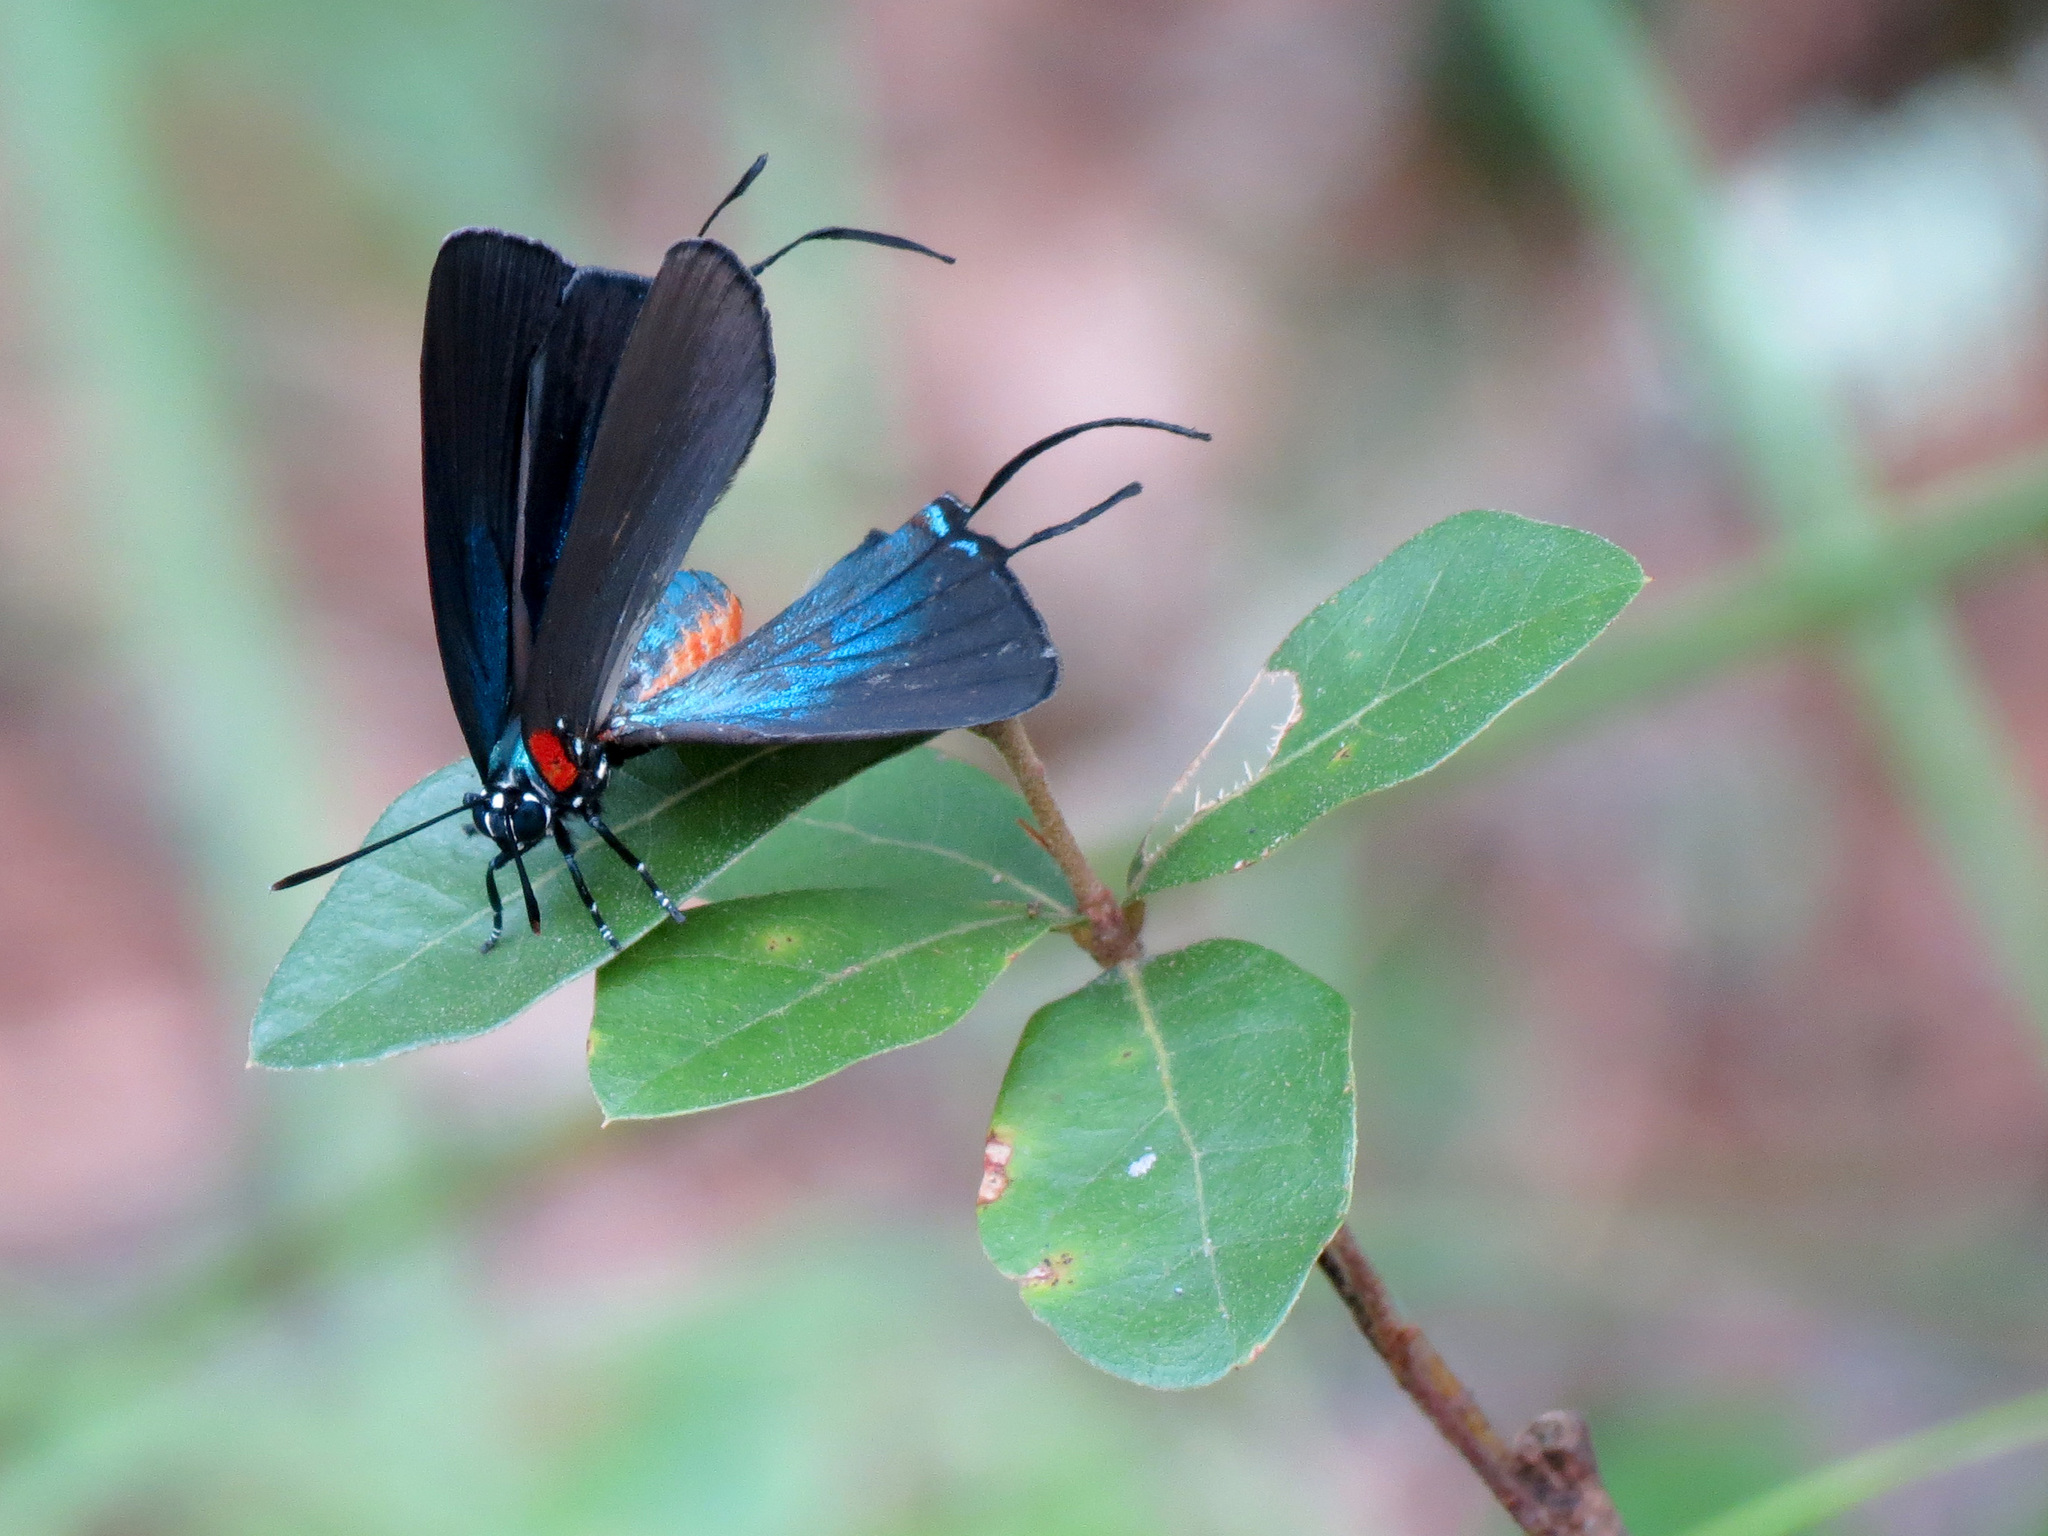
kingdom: Animalia
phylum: Arthropoda
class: Insecta
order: Lepidoptera
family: Lycaenidae
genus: Atlides
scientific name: Atlides halesus
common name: Great purple hairstreak
